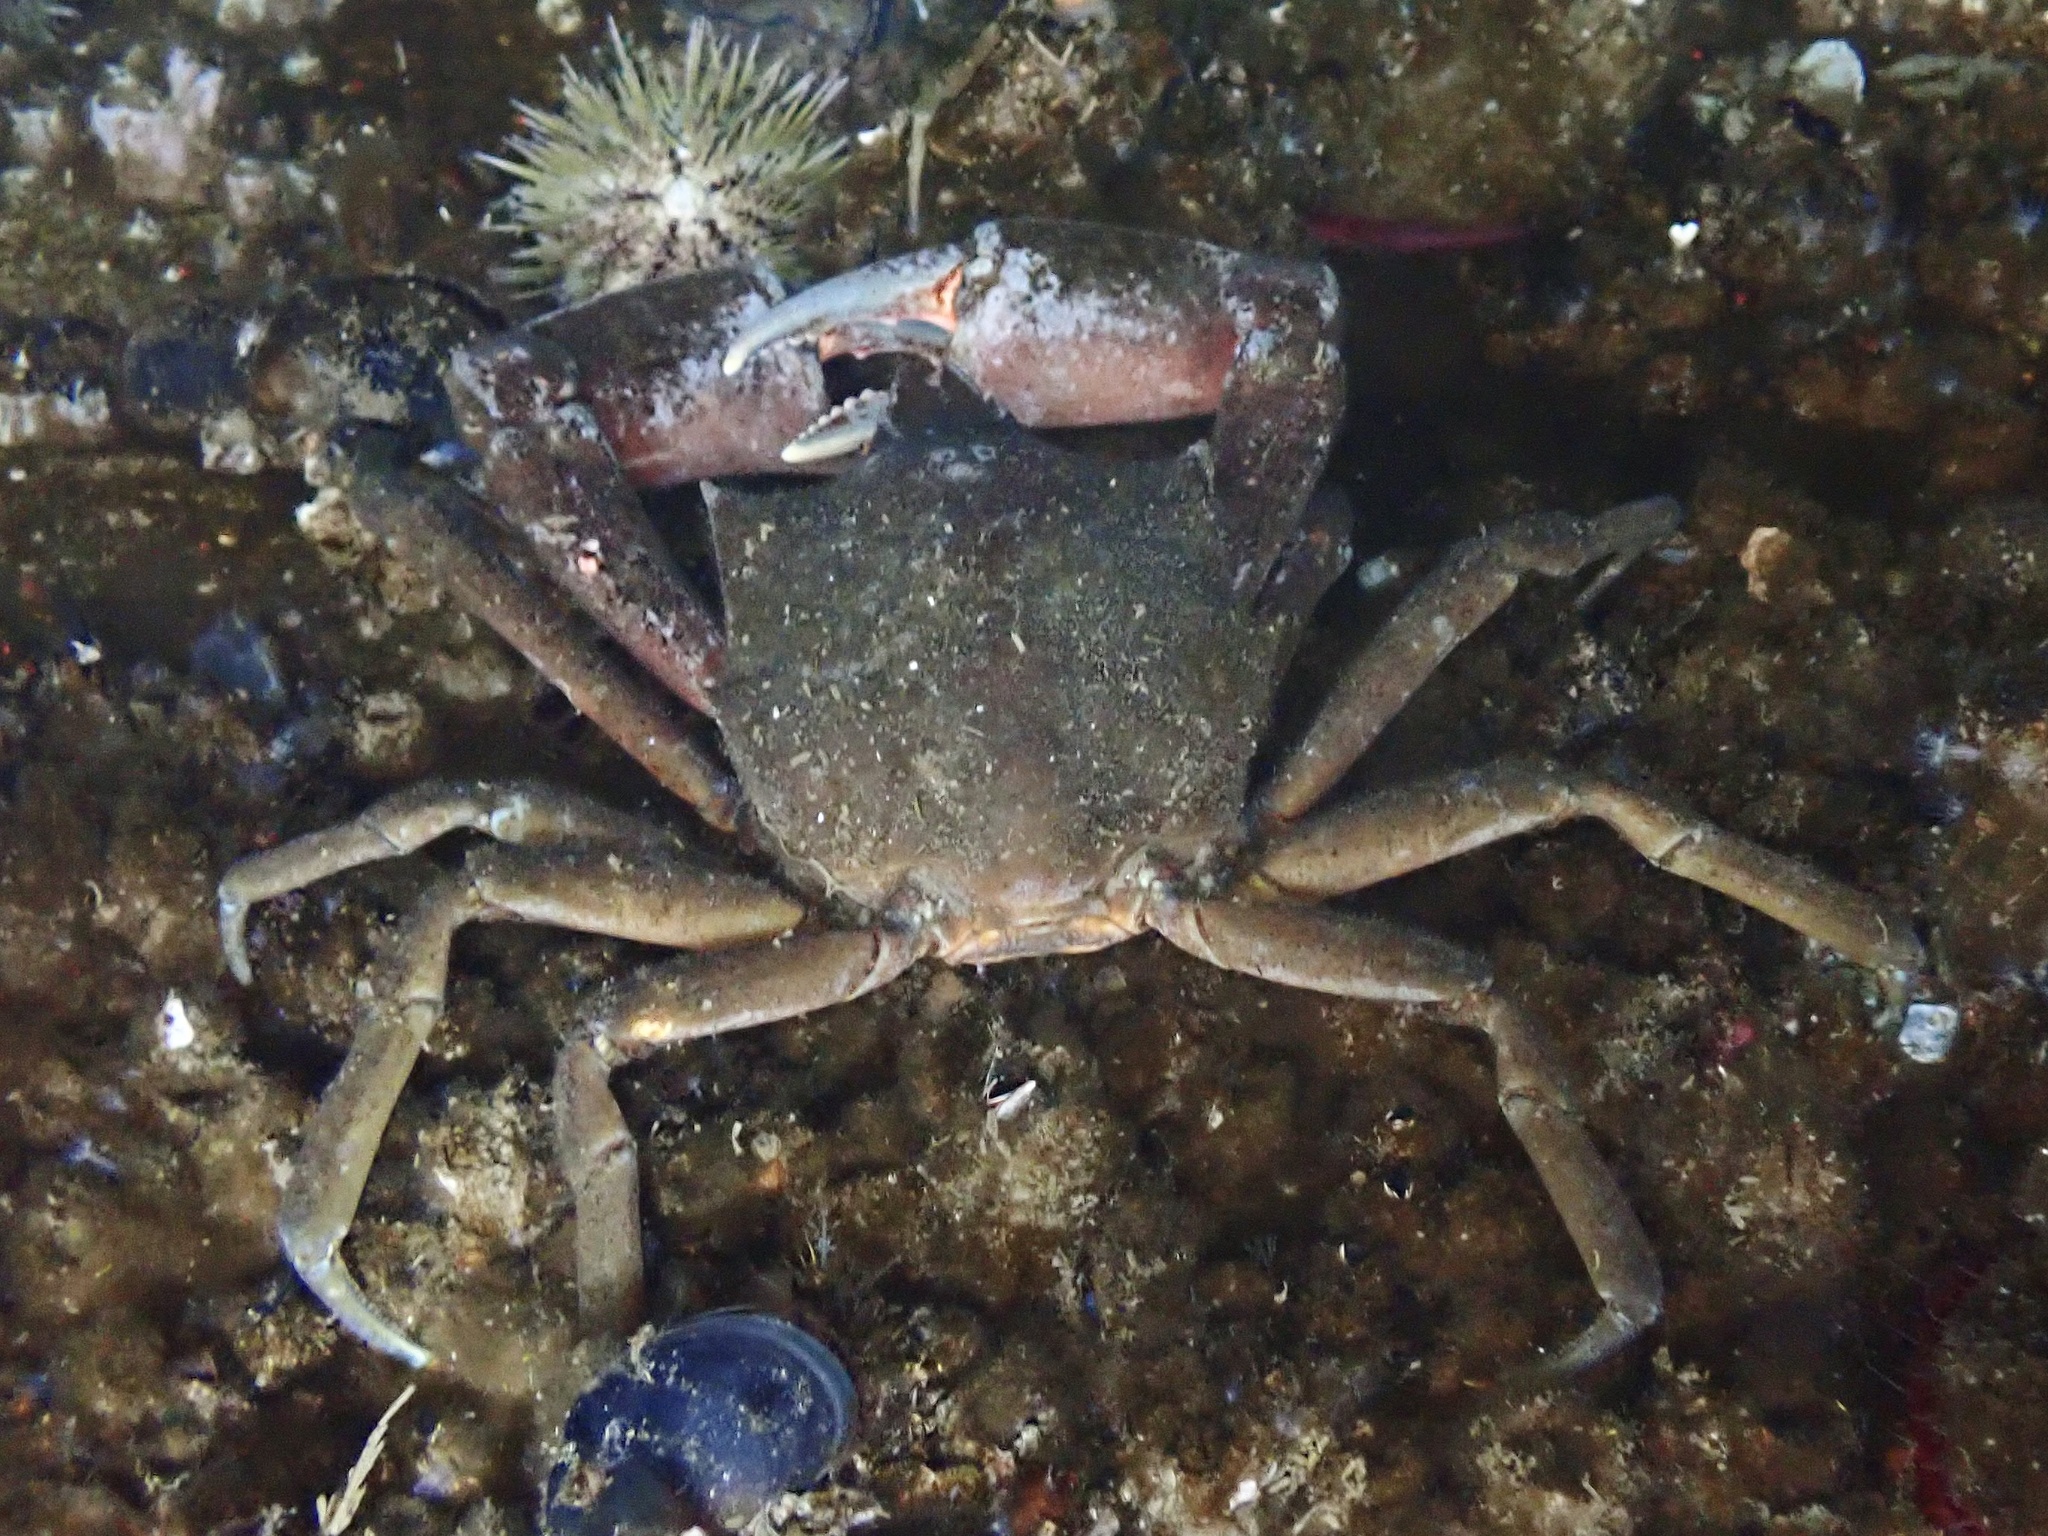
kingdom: Animalia
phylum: Arthropoda
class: Malacostraca
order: Decapoda
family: Epialtidae
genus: Pugettia
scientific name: Pugettia producta
